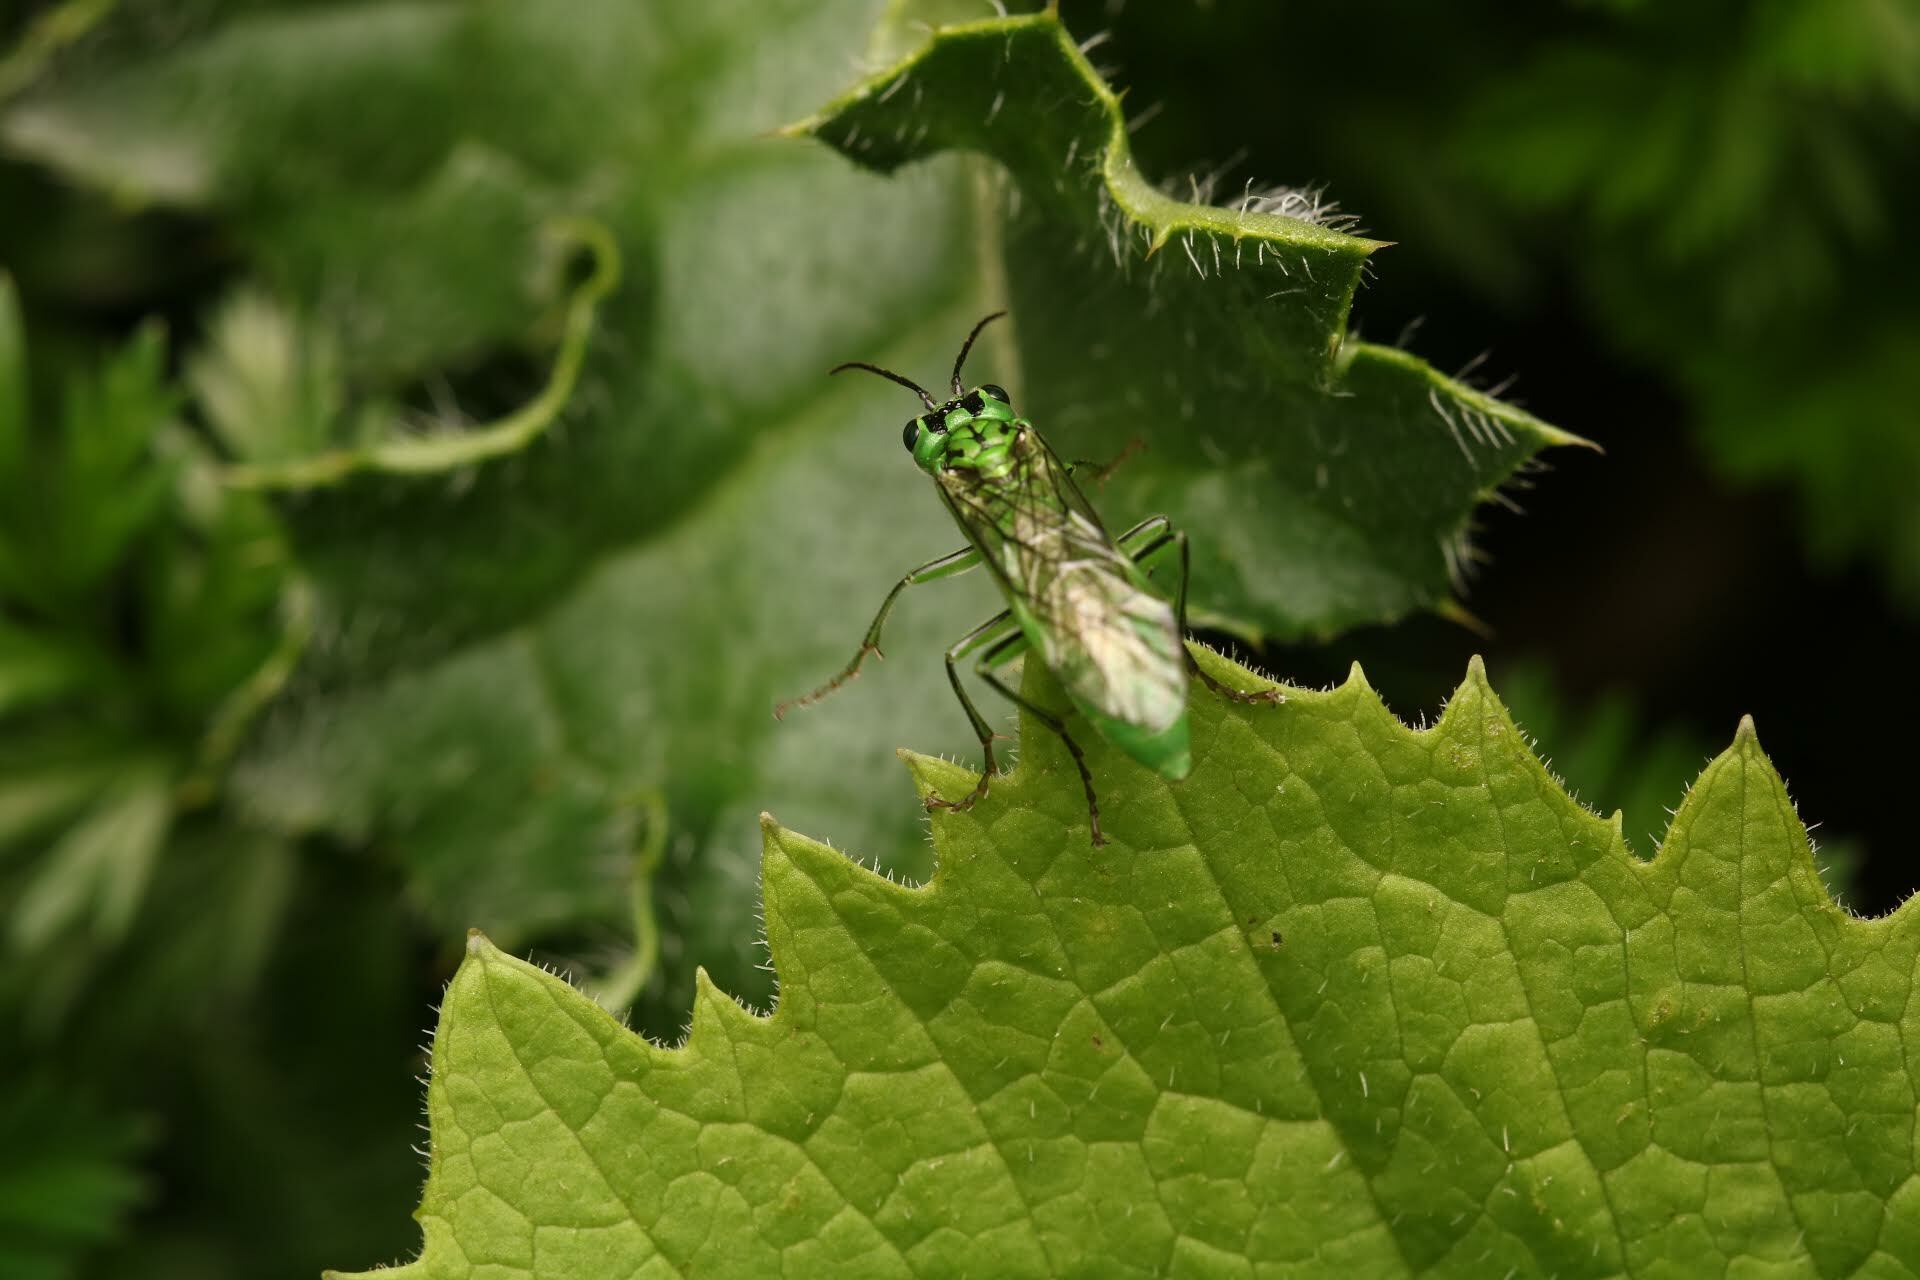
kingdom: Animalia
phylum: Arthropoda
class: Insecta
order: Hymenoptera
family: Tenthredinidae
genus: Tenthredo
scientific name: Tenthredo olivacea
